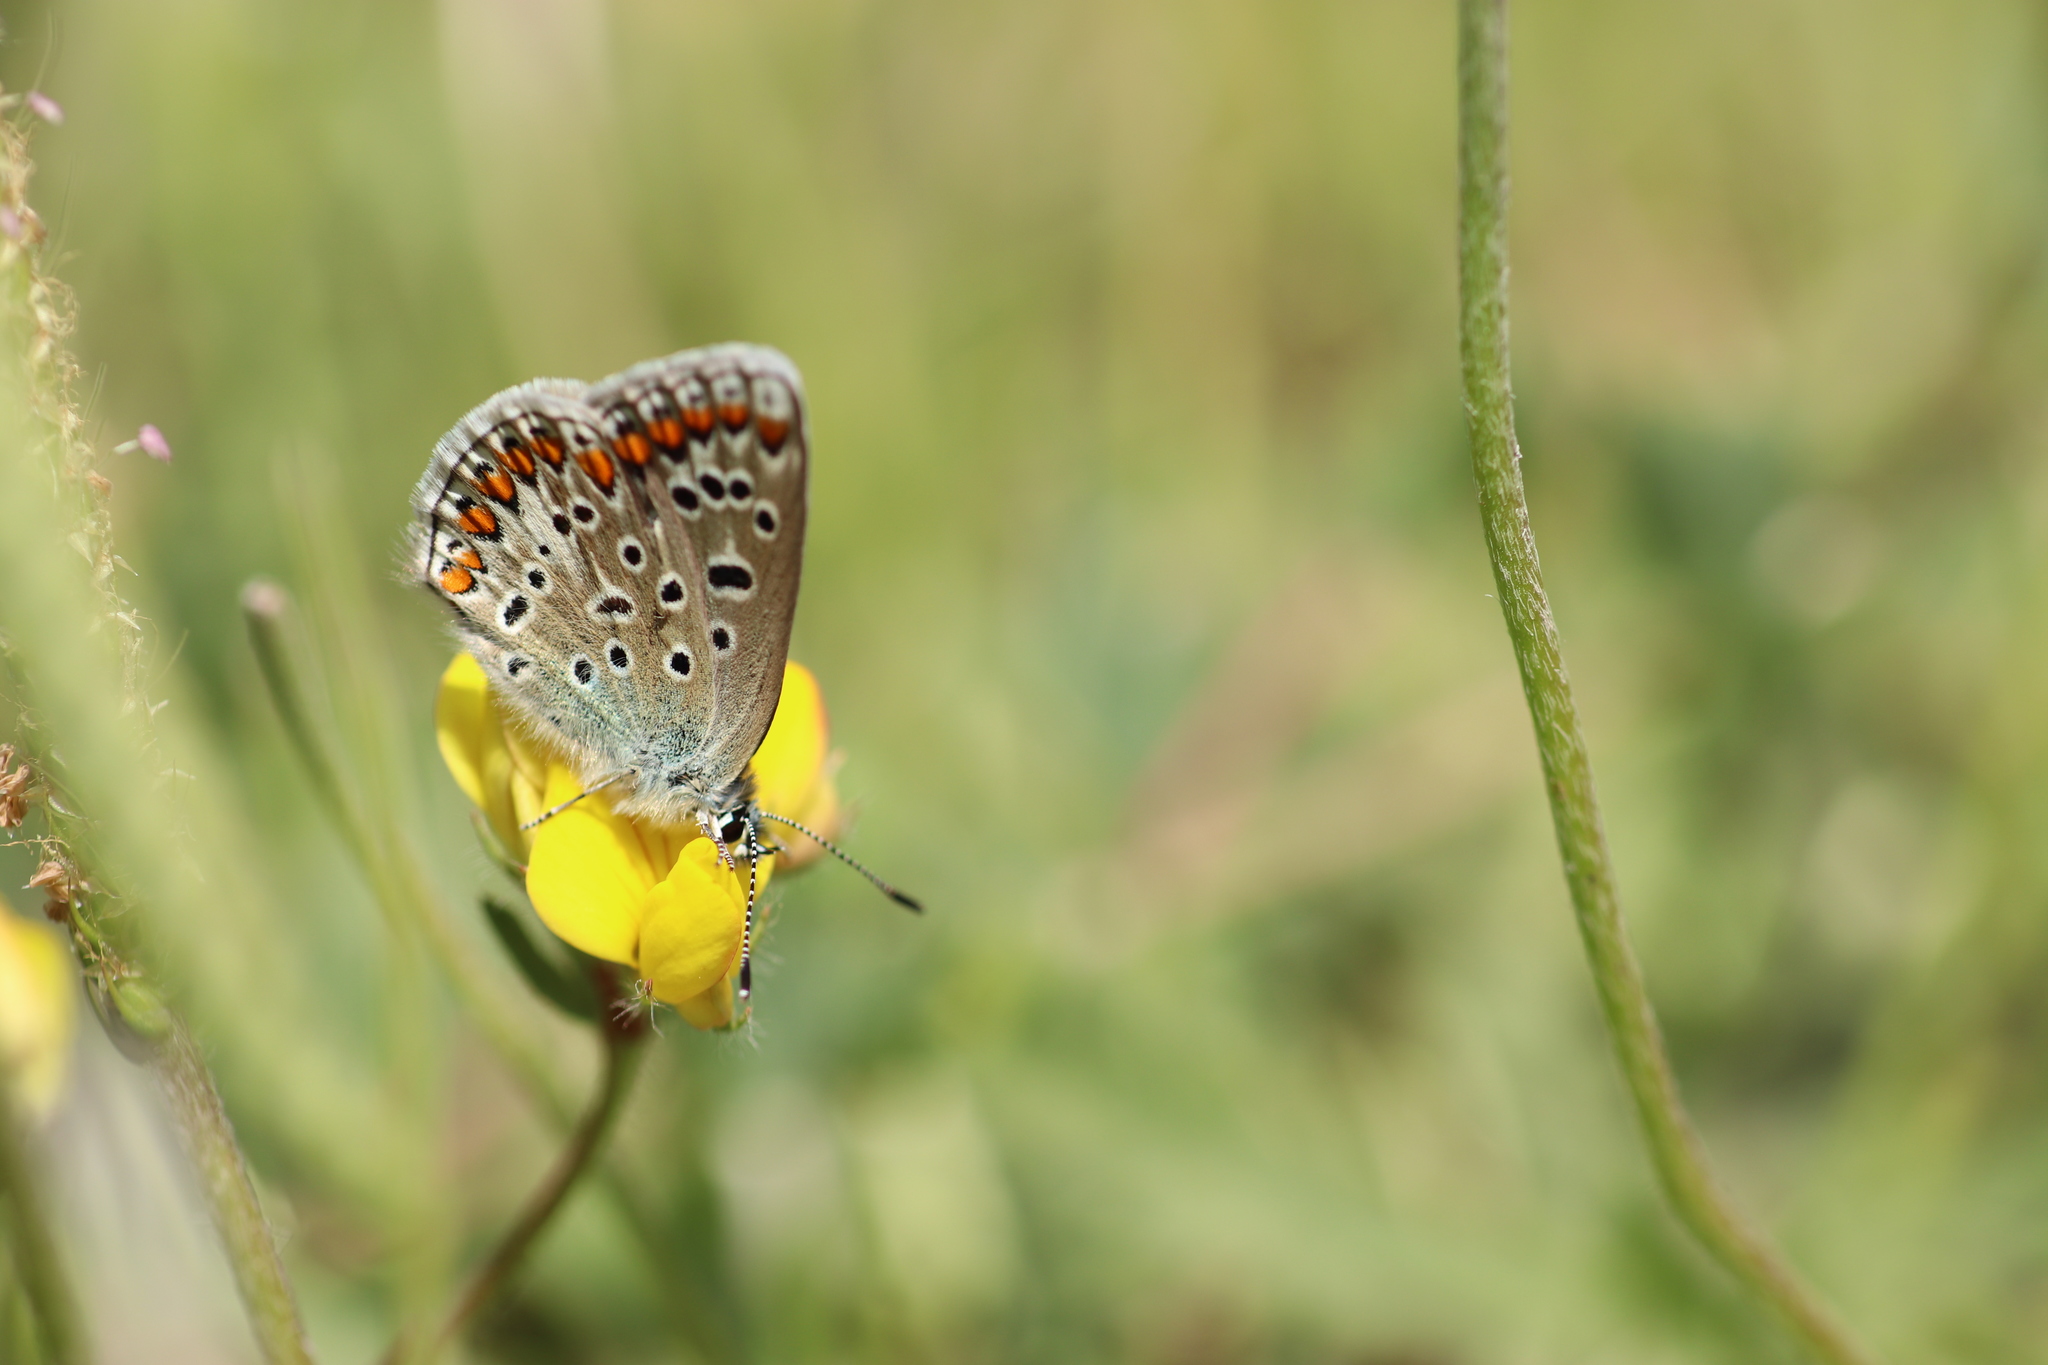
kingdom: Animalia
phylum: Arthropoda
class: Insecta
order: Lepidoptera
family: Lycaenidae
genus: Polyommatus
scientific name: Polyommatus icarus
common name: Common blue
